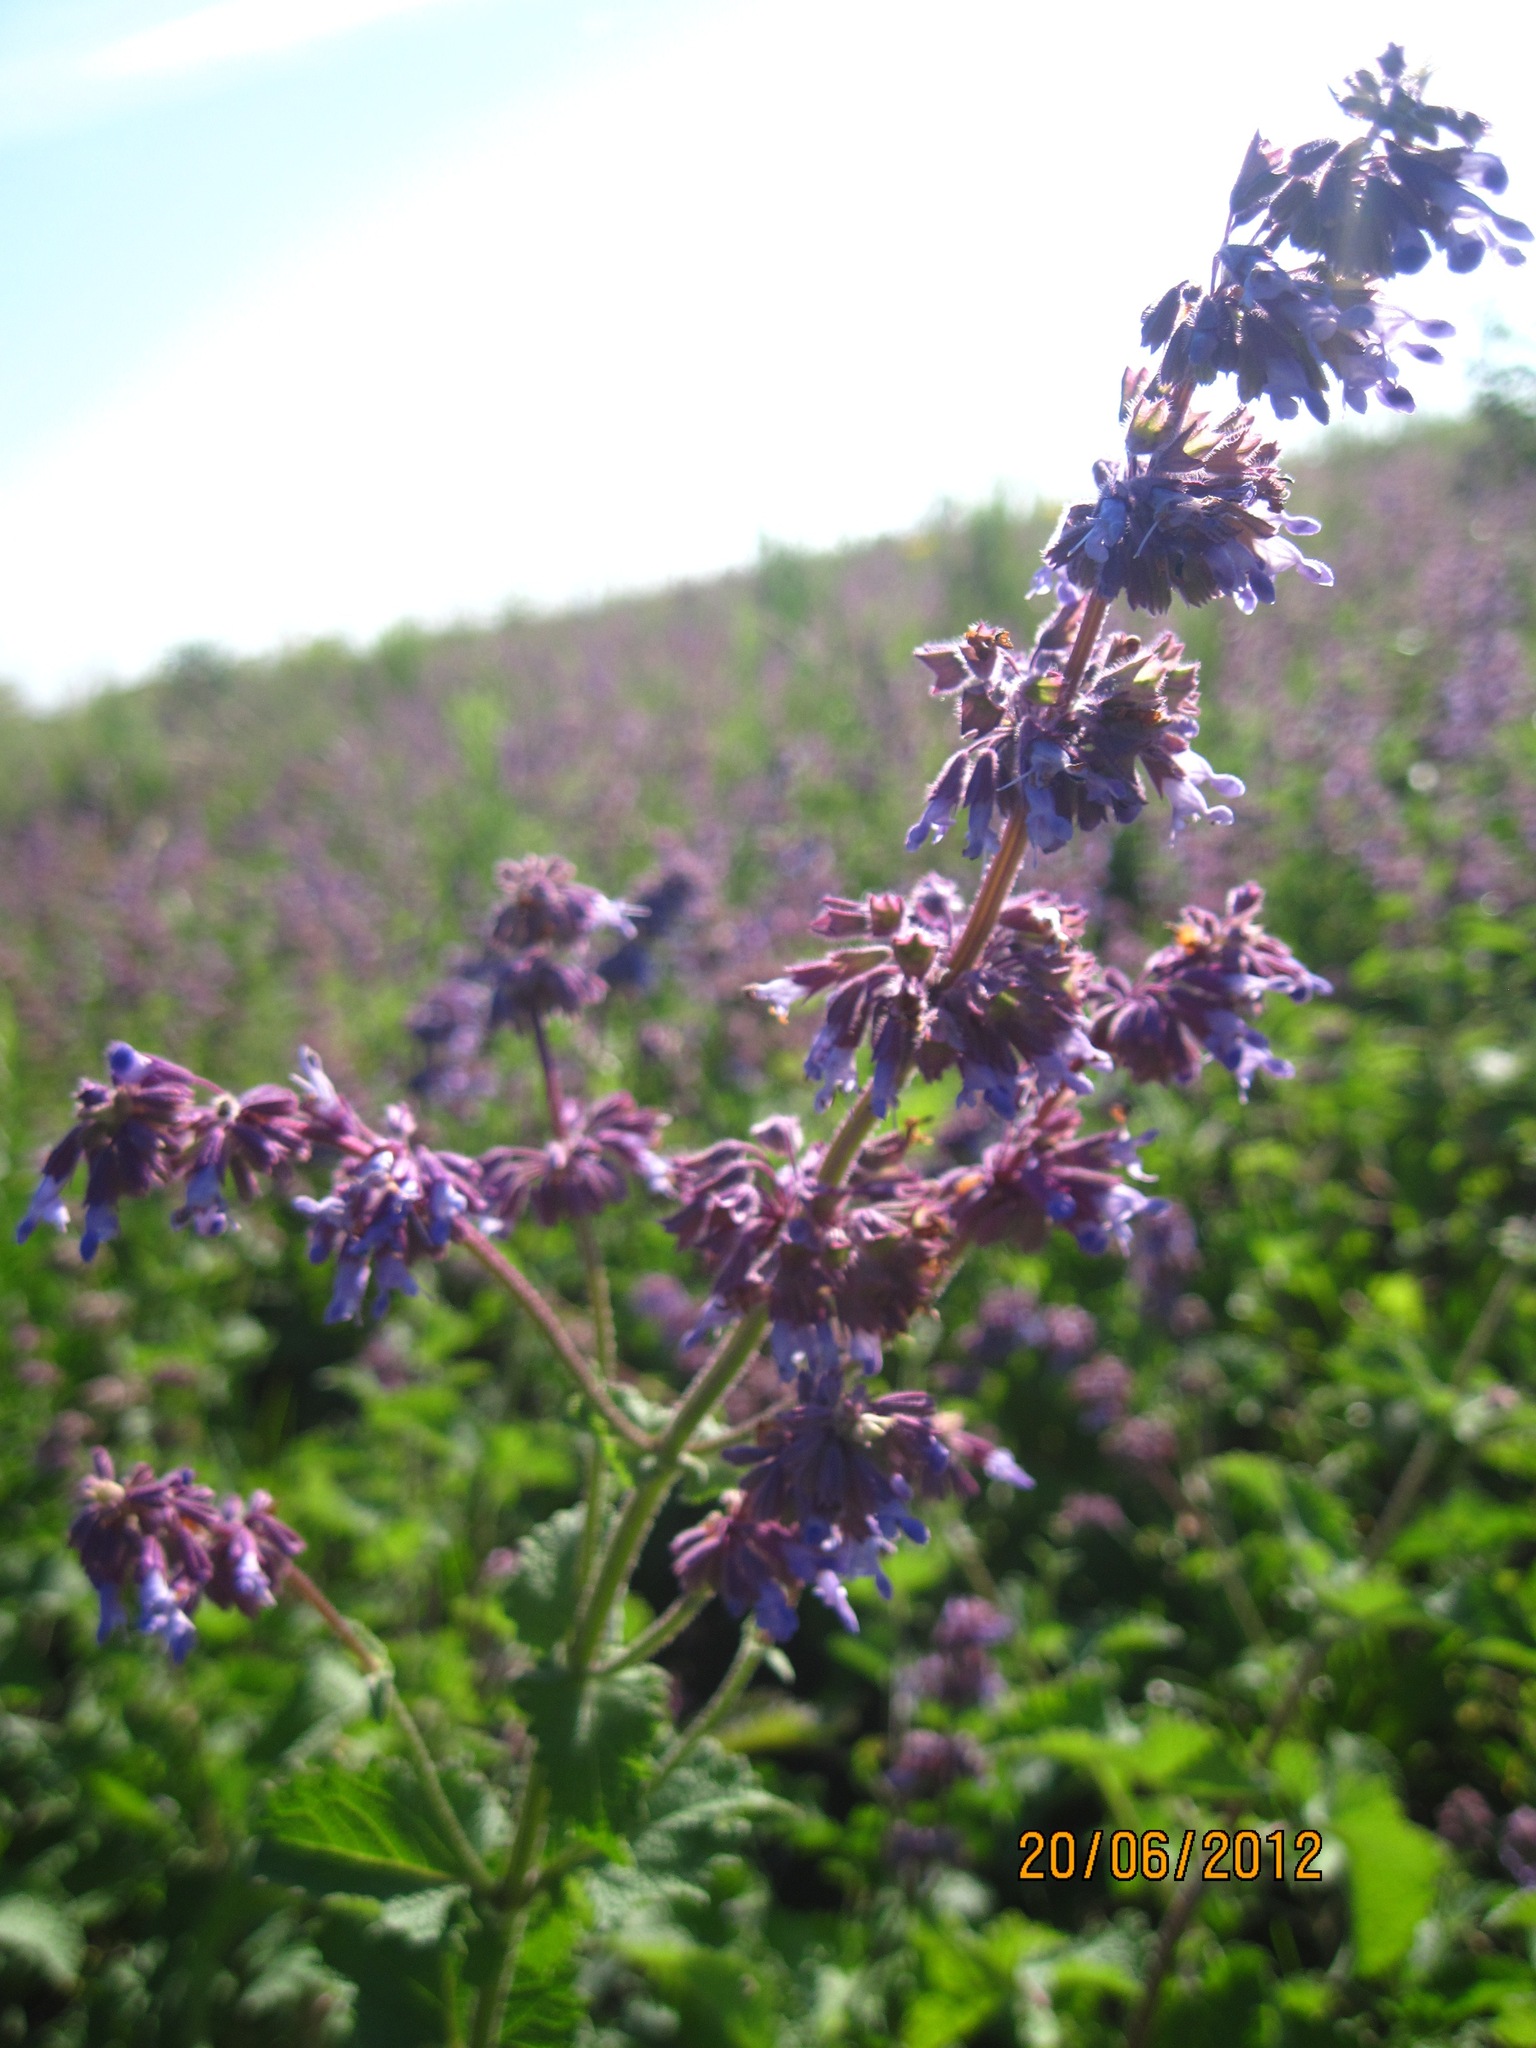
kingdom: Plantae
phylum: Tracheophyta
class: Magnoliopsida
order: Lamiales
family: Lamiaceae
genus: Salvia
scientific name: Salvia verticillata
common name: Whorled clary
